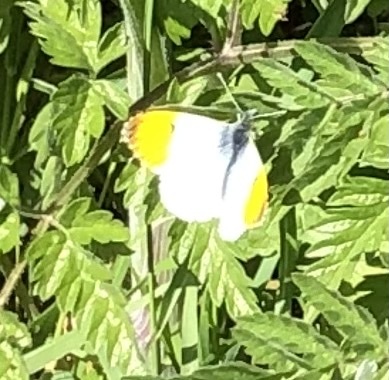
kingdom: Animalia
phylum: Arthropoda
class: Insecta
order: Lepidoptera
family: Pieridae
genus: Anthocharis
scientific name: Anthocharis cardamines
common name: Orange-tip
